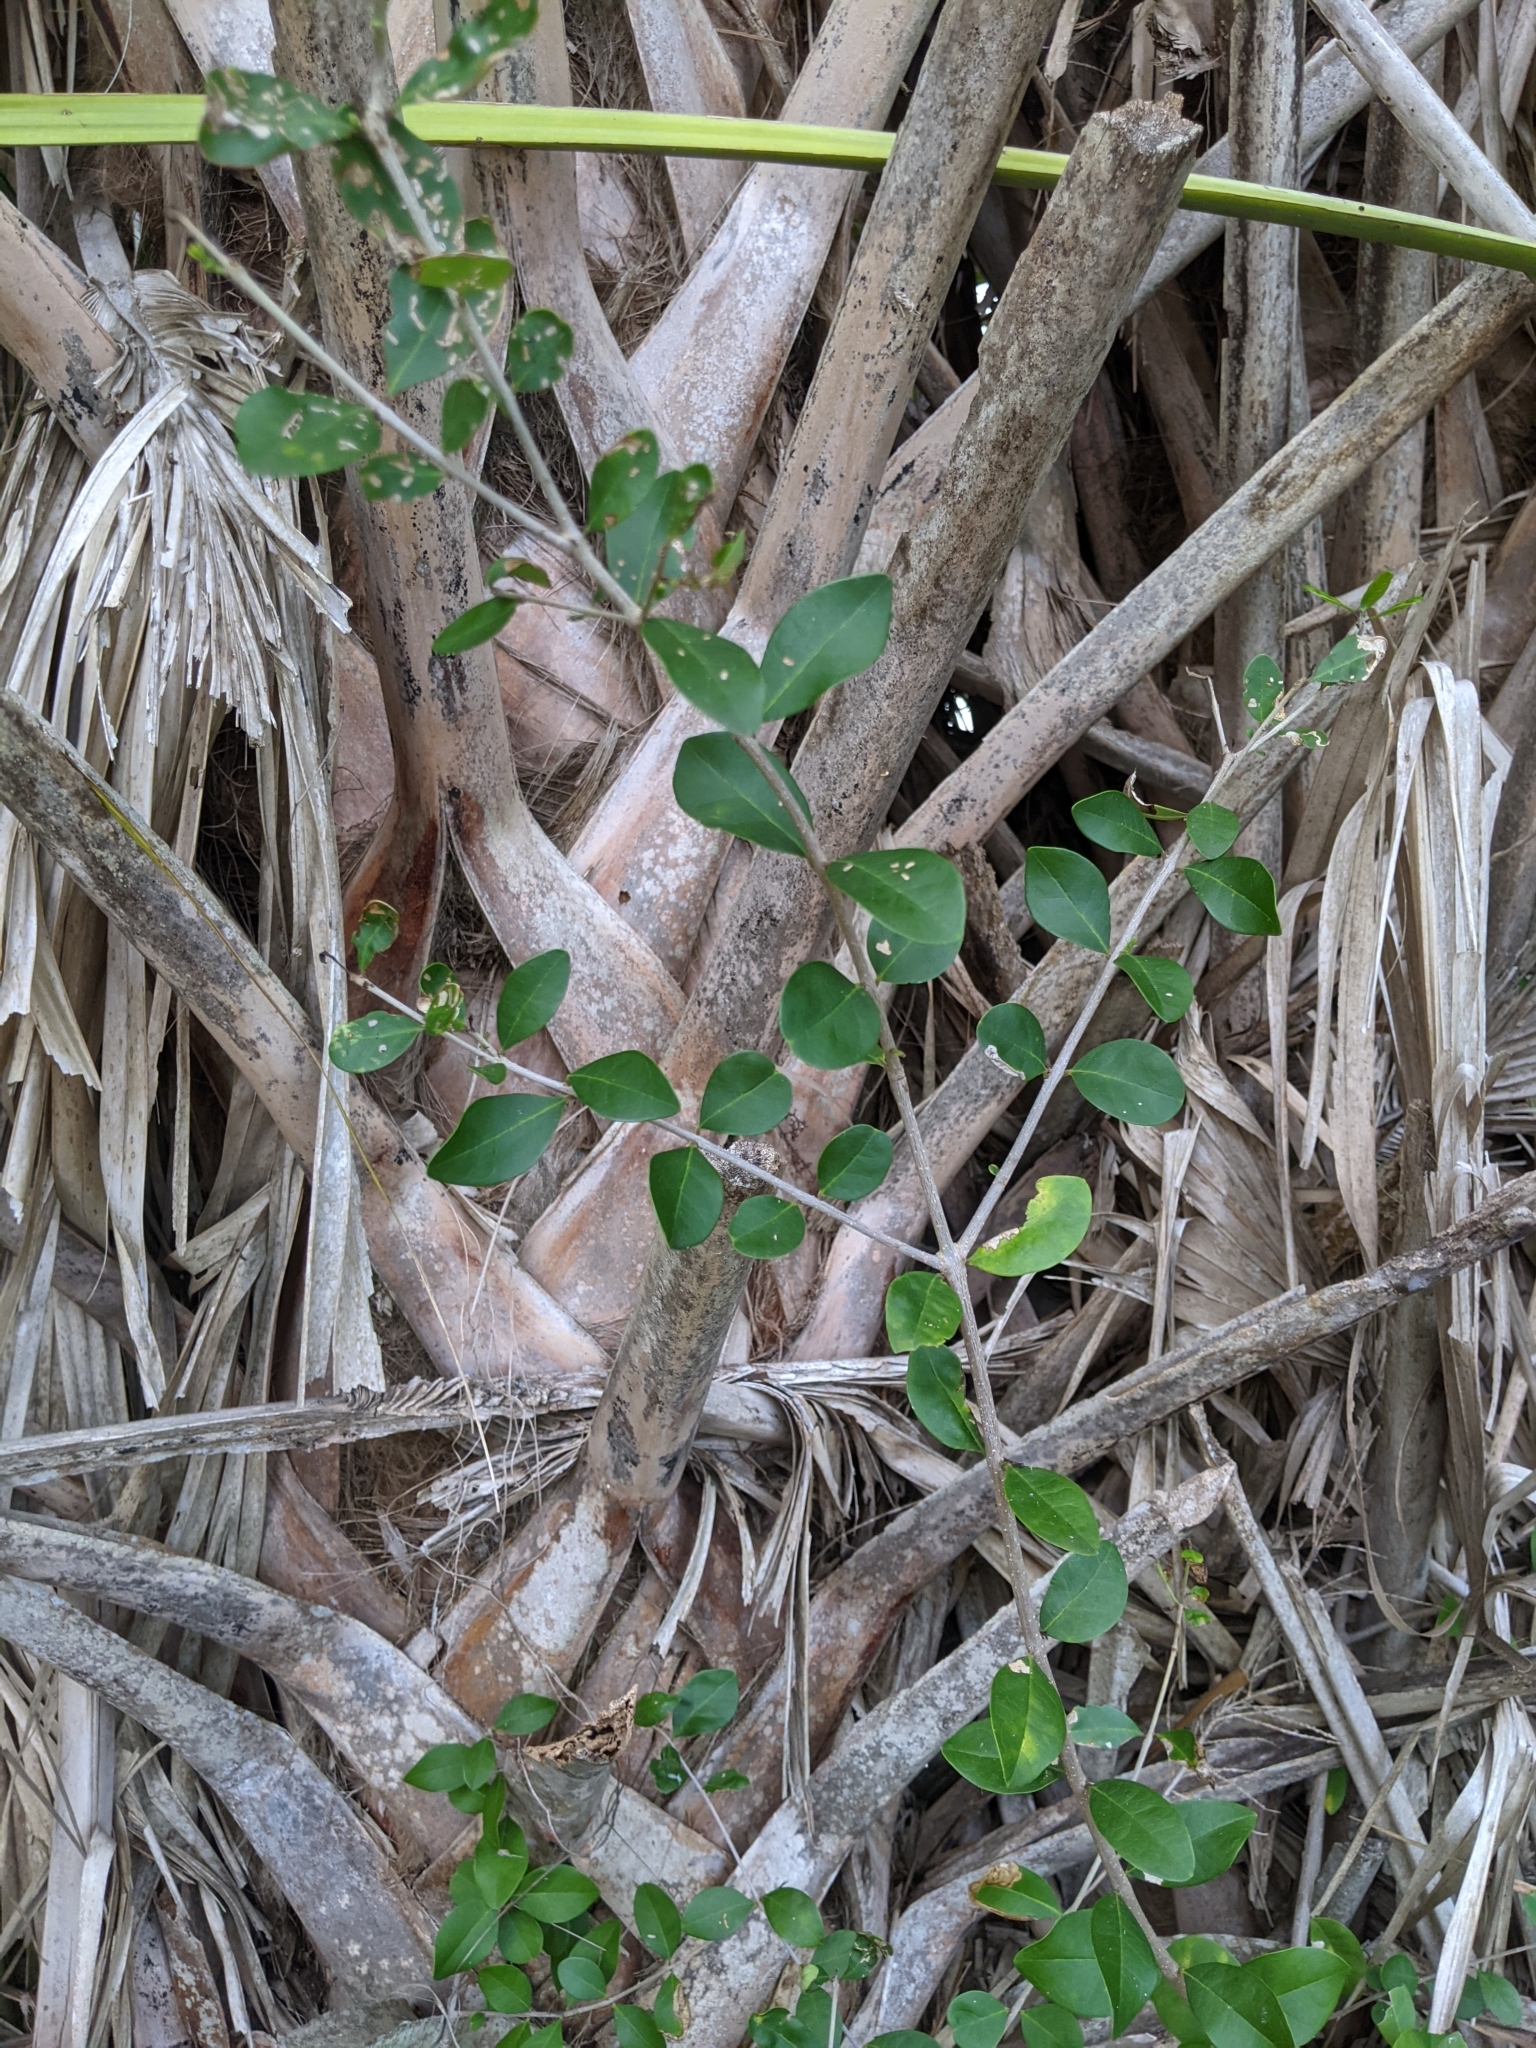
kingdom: Plantae
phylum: Tracheophyta
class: Magnoliopsida
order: Lamiales
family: Oleaceae
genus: Forestiera
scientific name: Forestiera segregata
